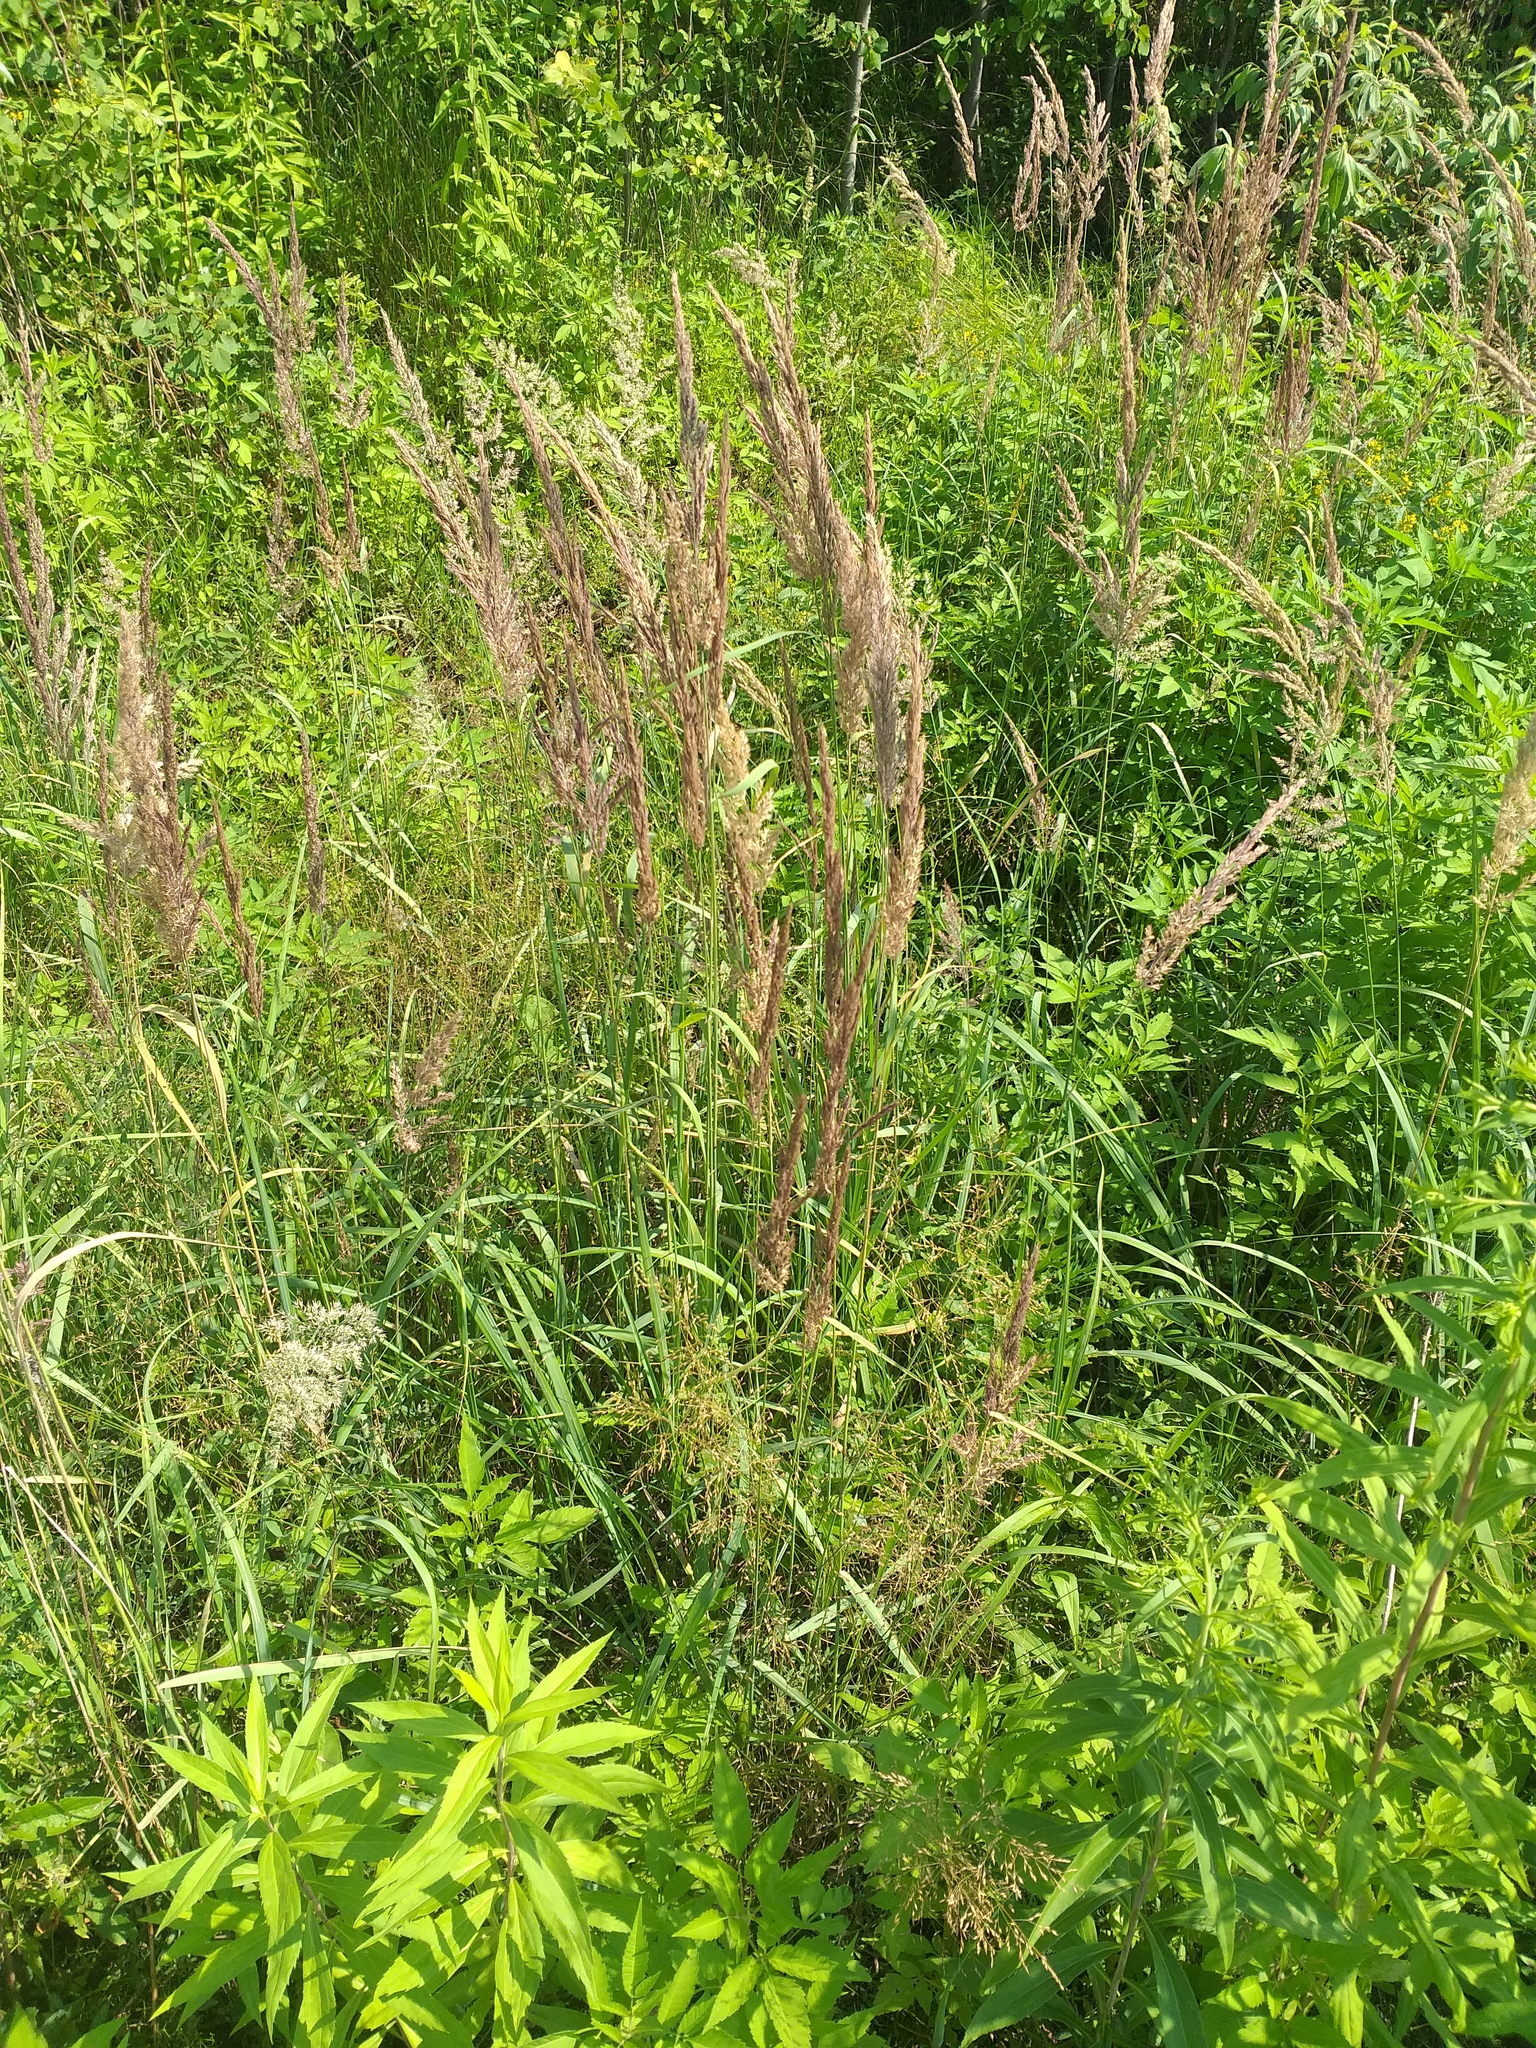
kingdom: Plantae
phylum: Tracheophyta
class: Liliopsida
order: Poales
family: Poaceae
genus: Calamagrostis
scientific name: Calamagrostis epigejos
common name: Wood small-reed
